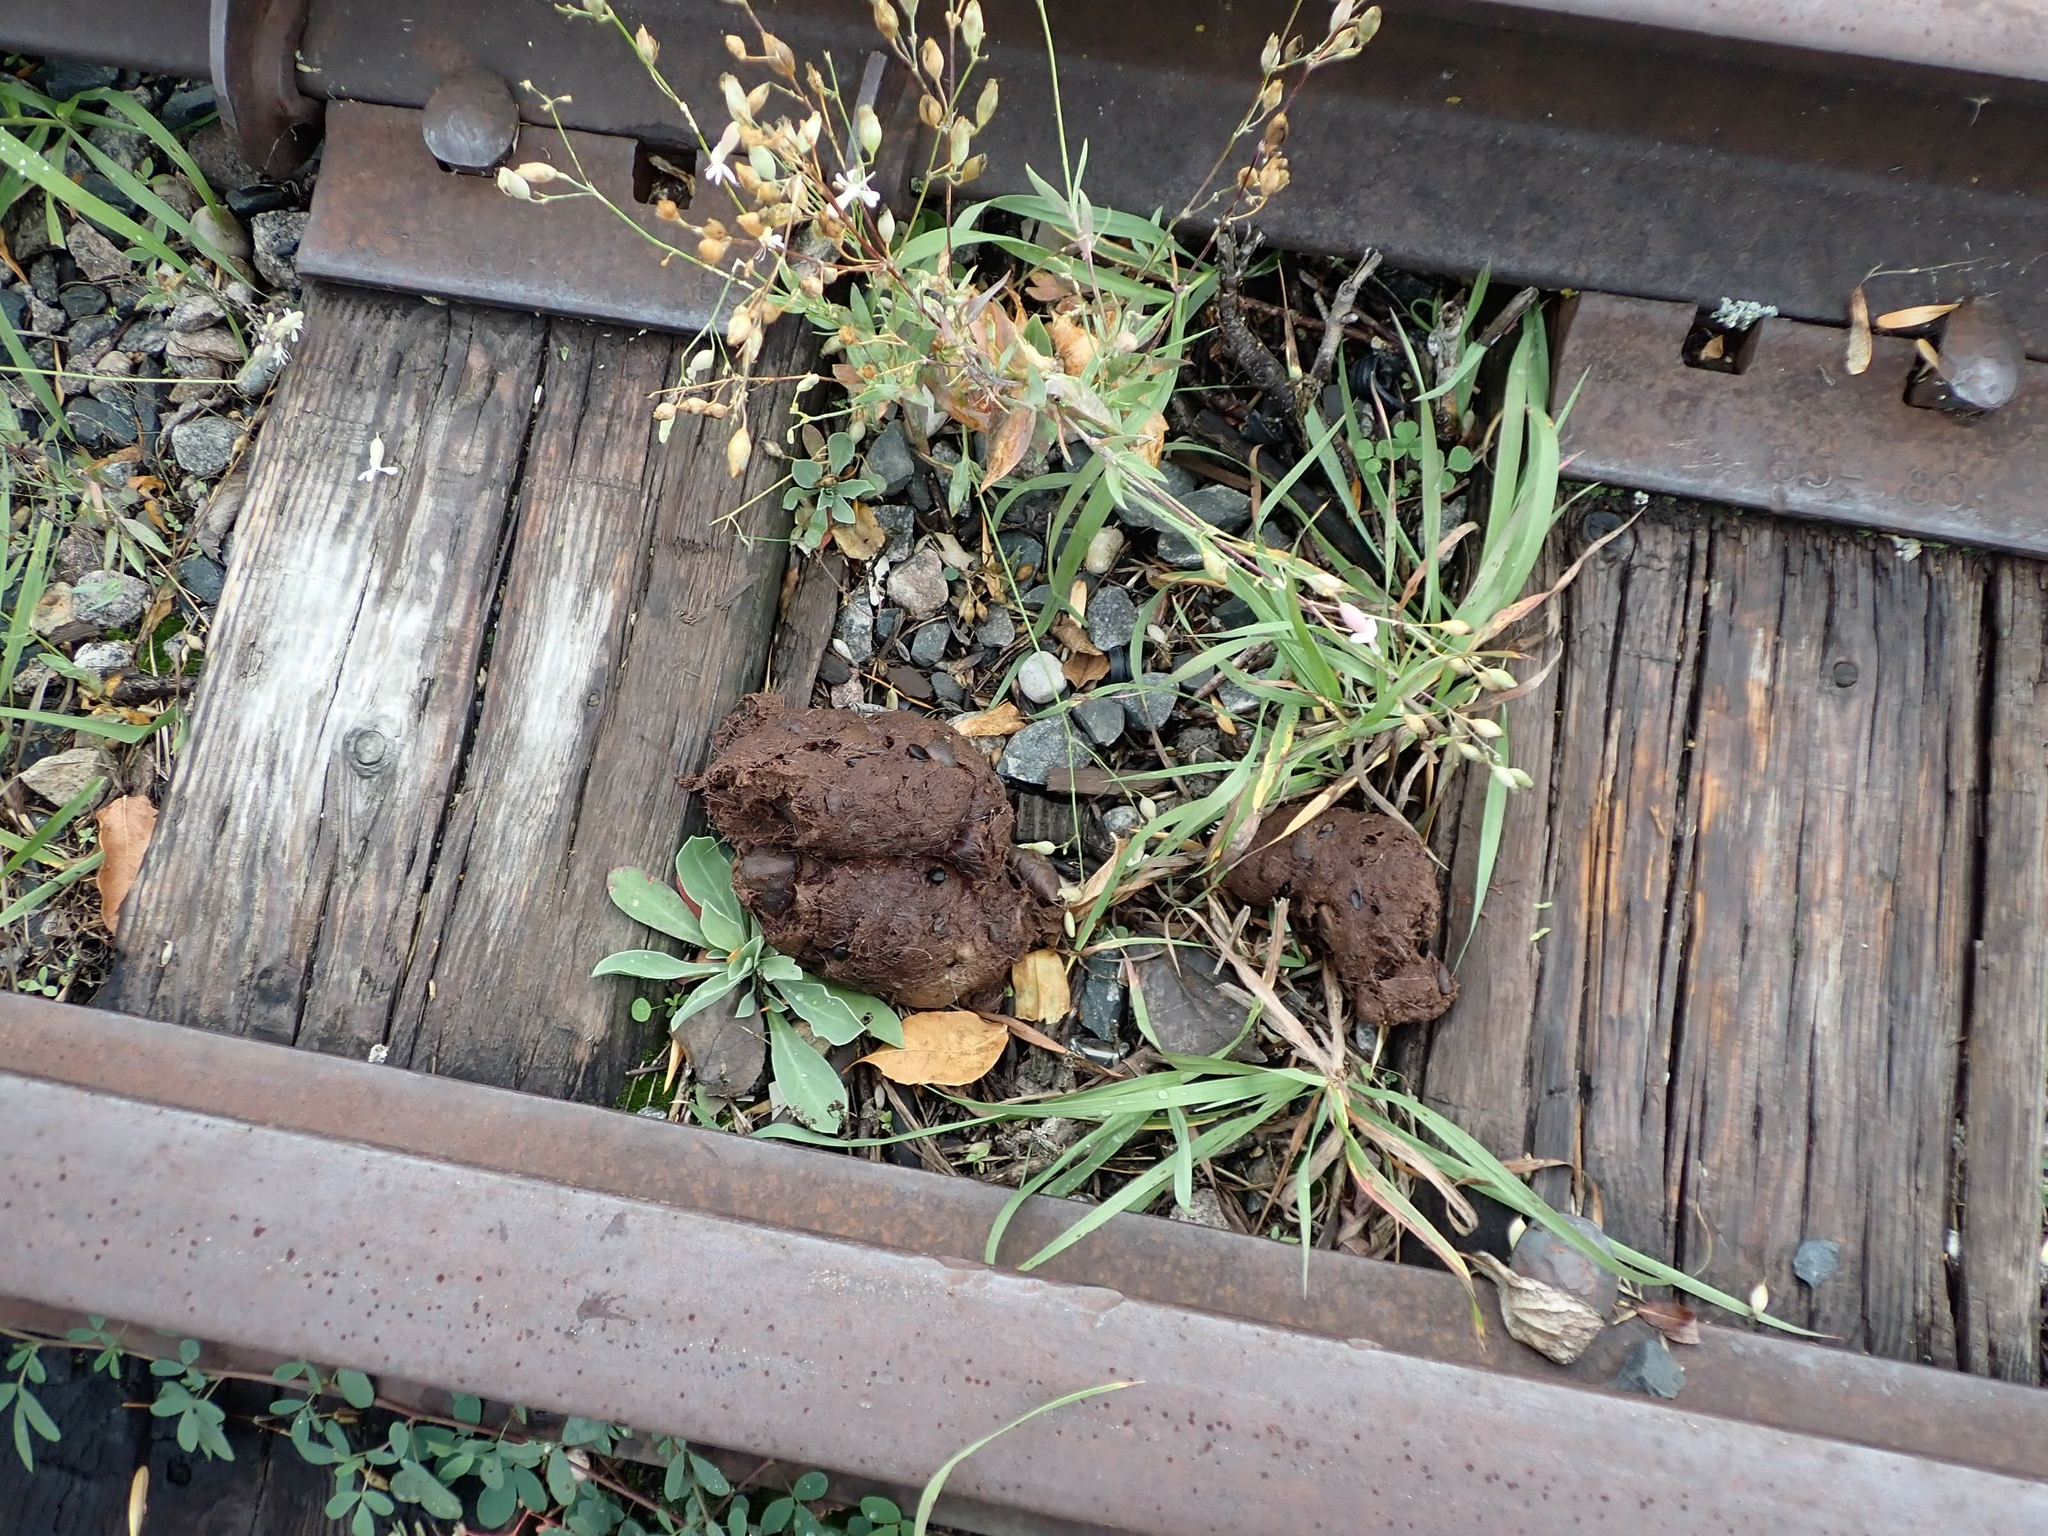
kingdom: Animalia
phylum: Chordata
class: Mammalia
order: Carnivora
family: Ursidae
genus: Ursus
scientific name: Ursus americanus
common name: American black bear
